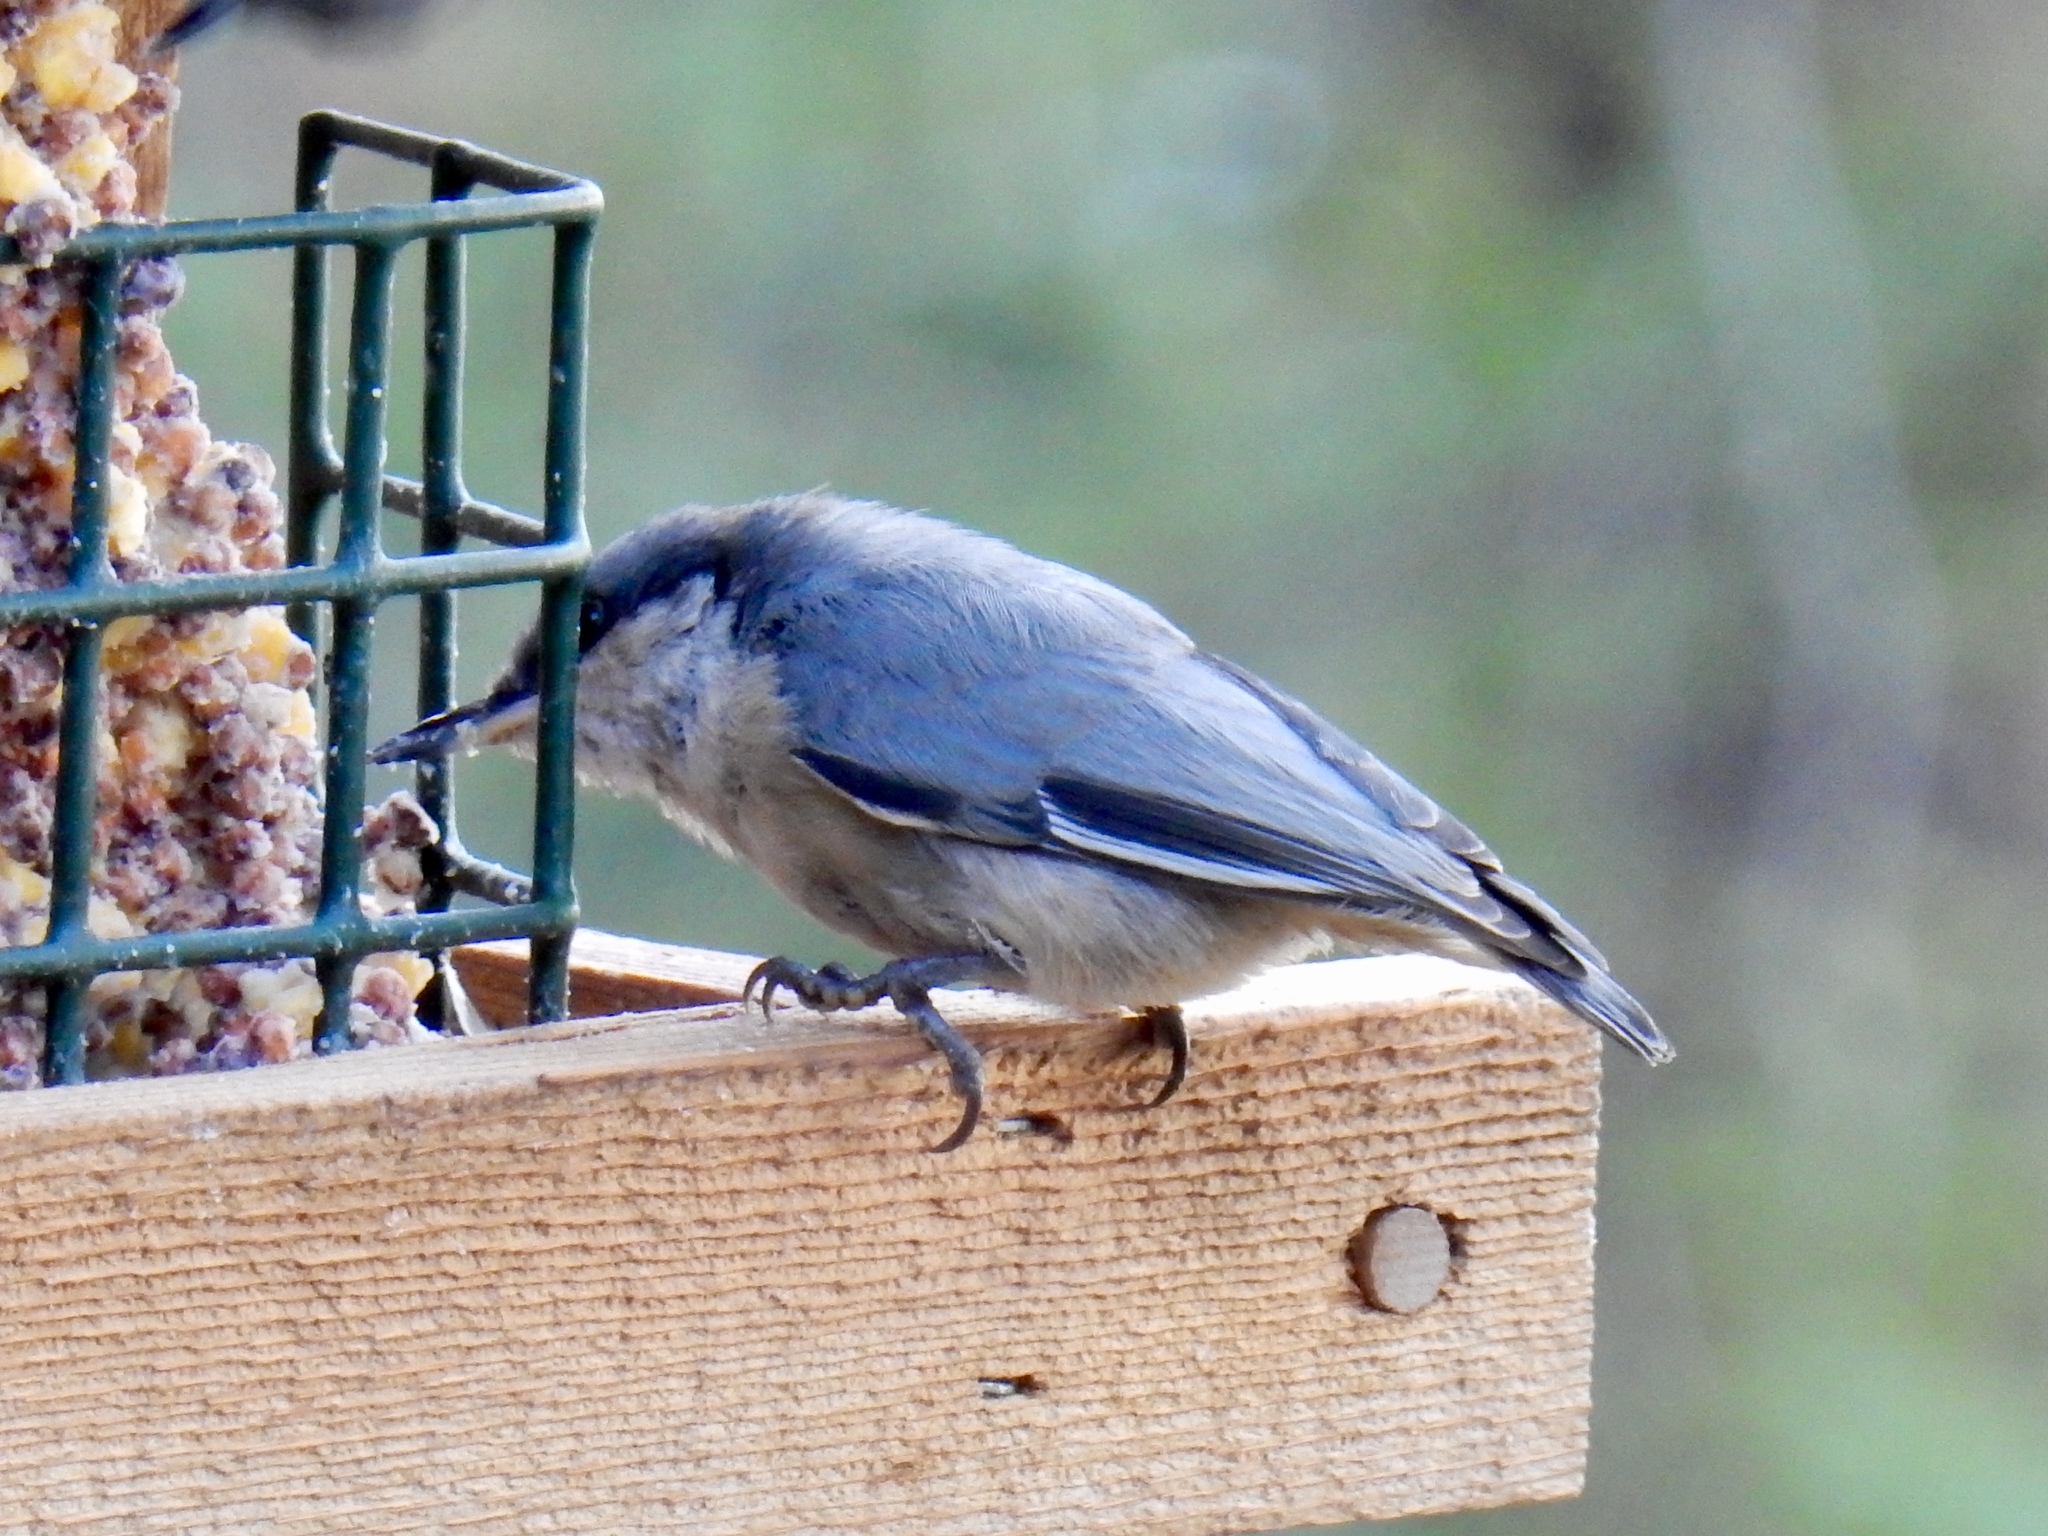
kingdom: Animalia
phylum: Chordata
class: Aves
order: Passeriformes
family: Sittidae
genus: Sitta
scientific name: Sitta pygmaea
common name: Pygmy nuthatch
